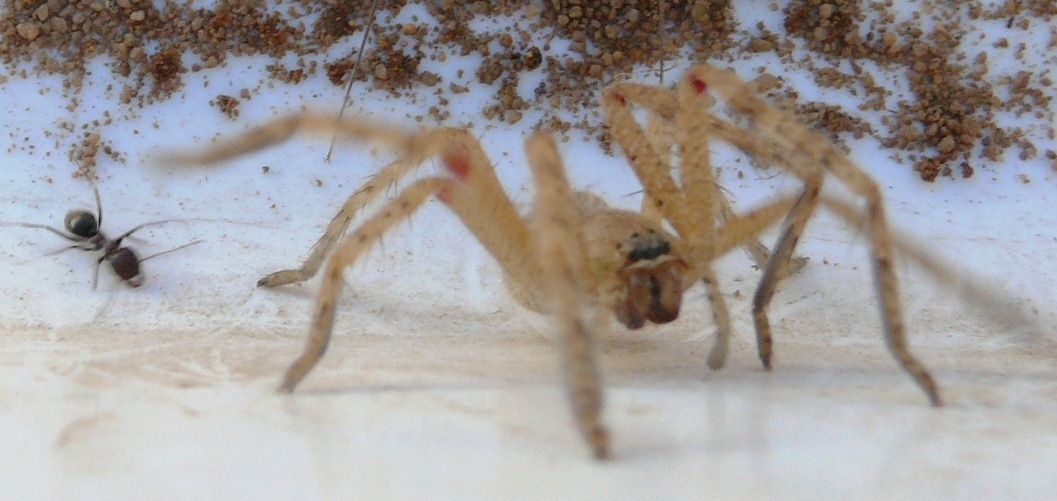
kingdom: Animalia
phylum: Arthropoda
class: Arachnida
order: Araneae
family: Sparassidae
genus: Palystes
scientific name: Palystes martinfilmeri
